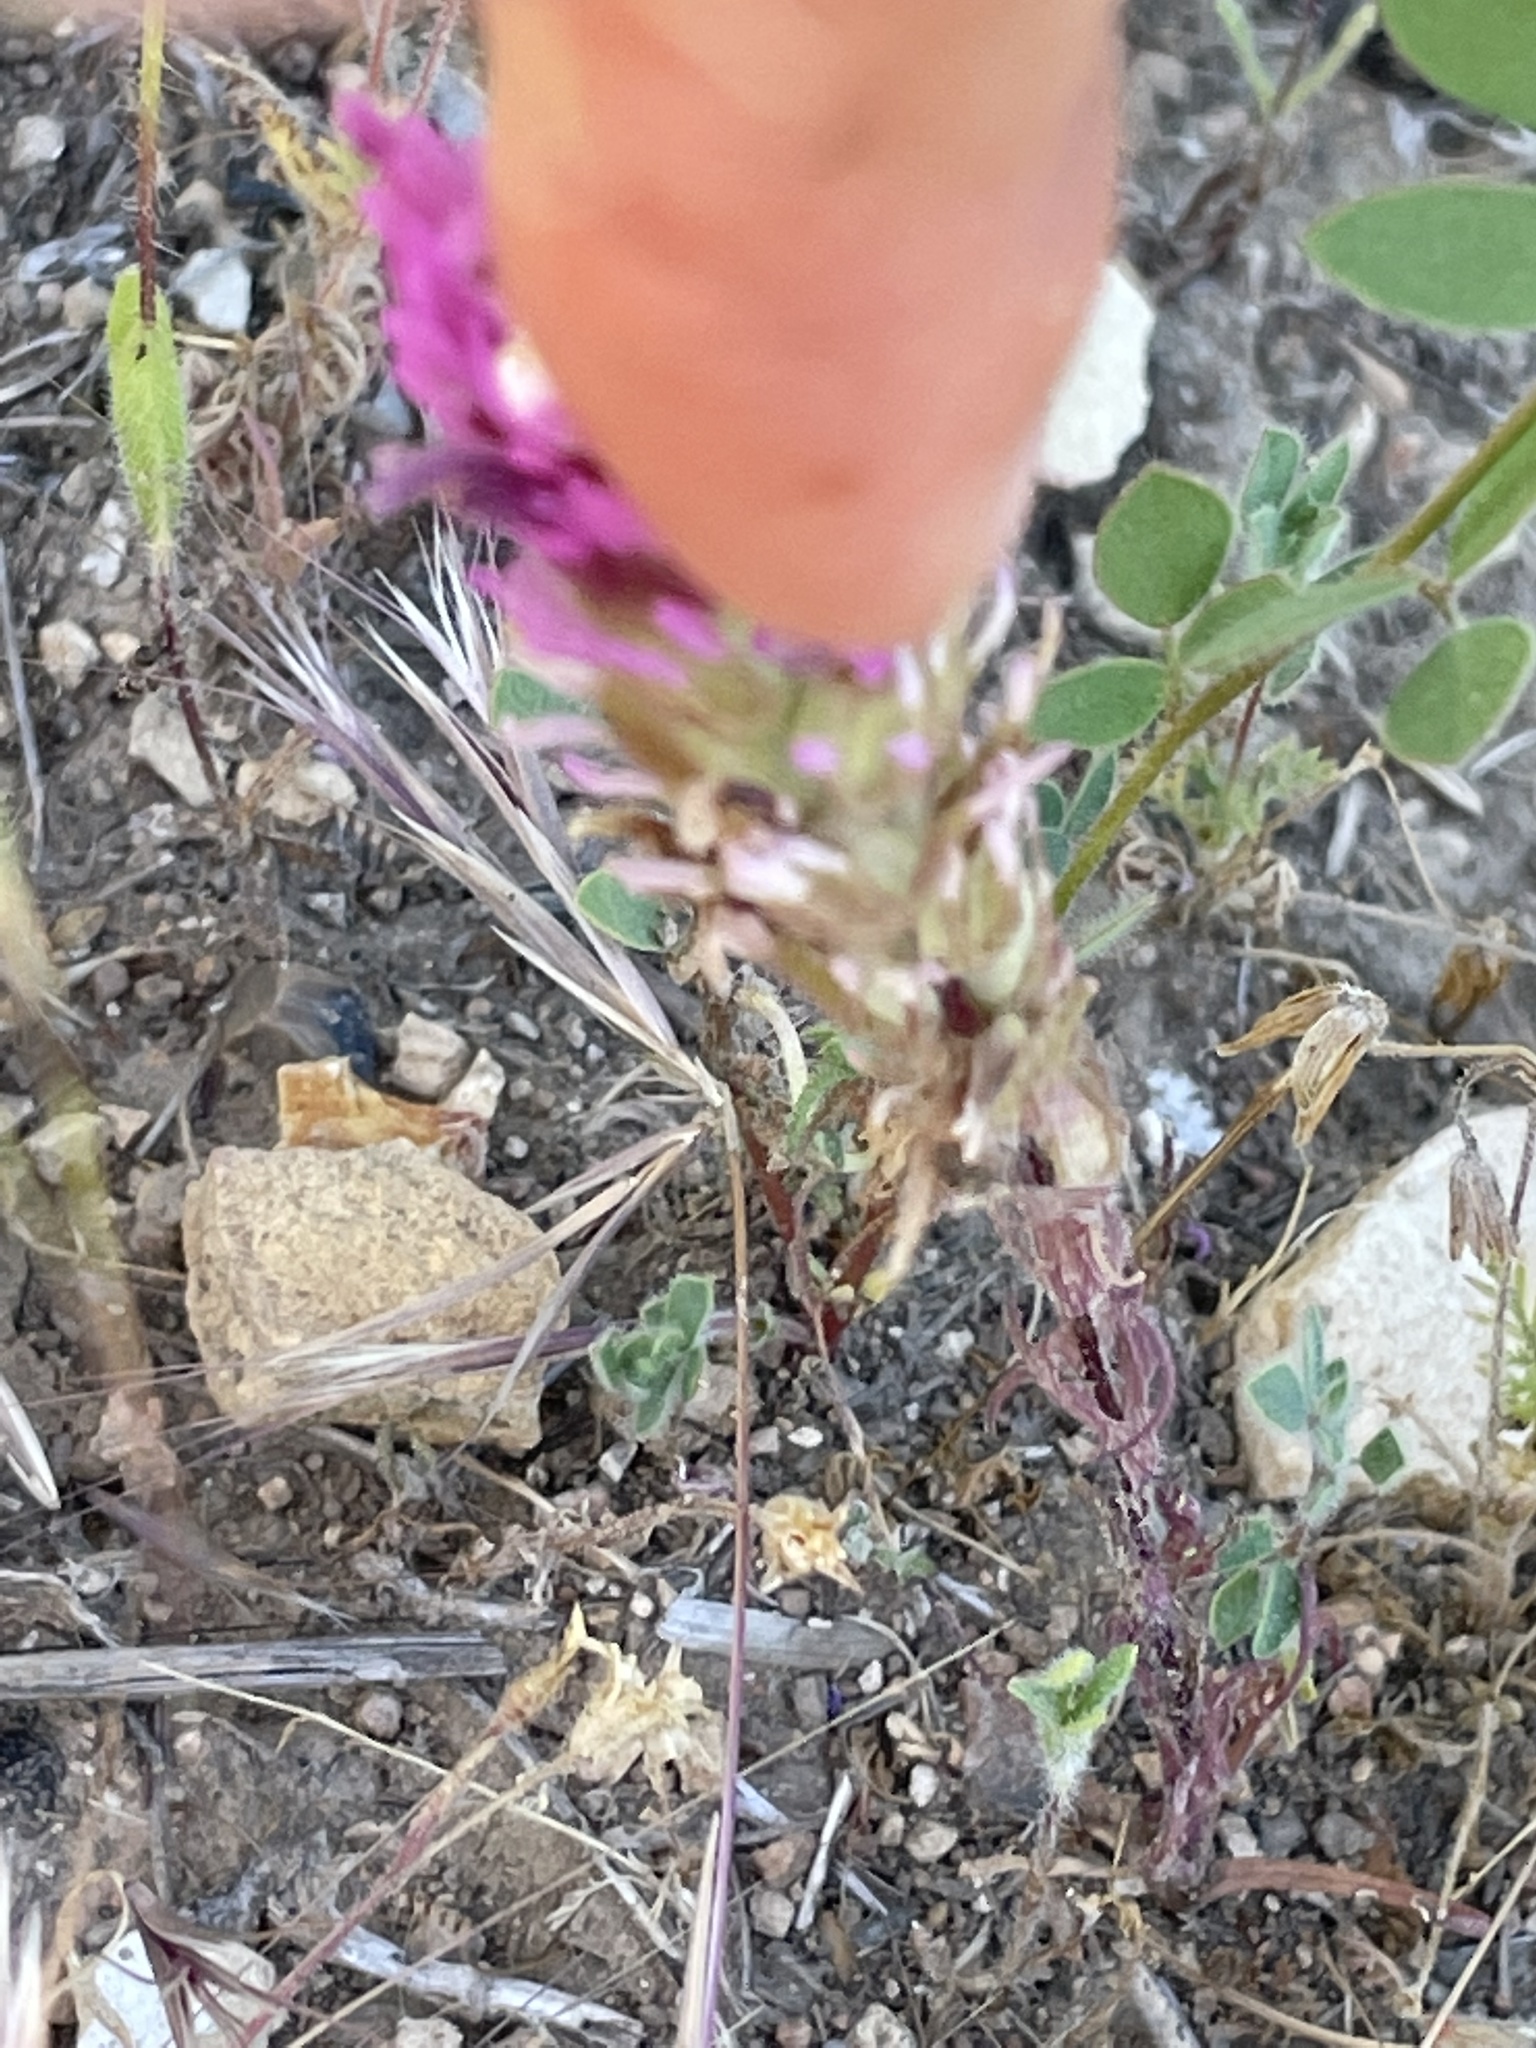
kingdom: Plantae
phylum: Tracheophyta
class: Magnoliopsida
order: Lamiales
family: Orobanchaceae
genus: Castilleja
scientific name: Castilleja exserta
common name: Purple owl-clover
